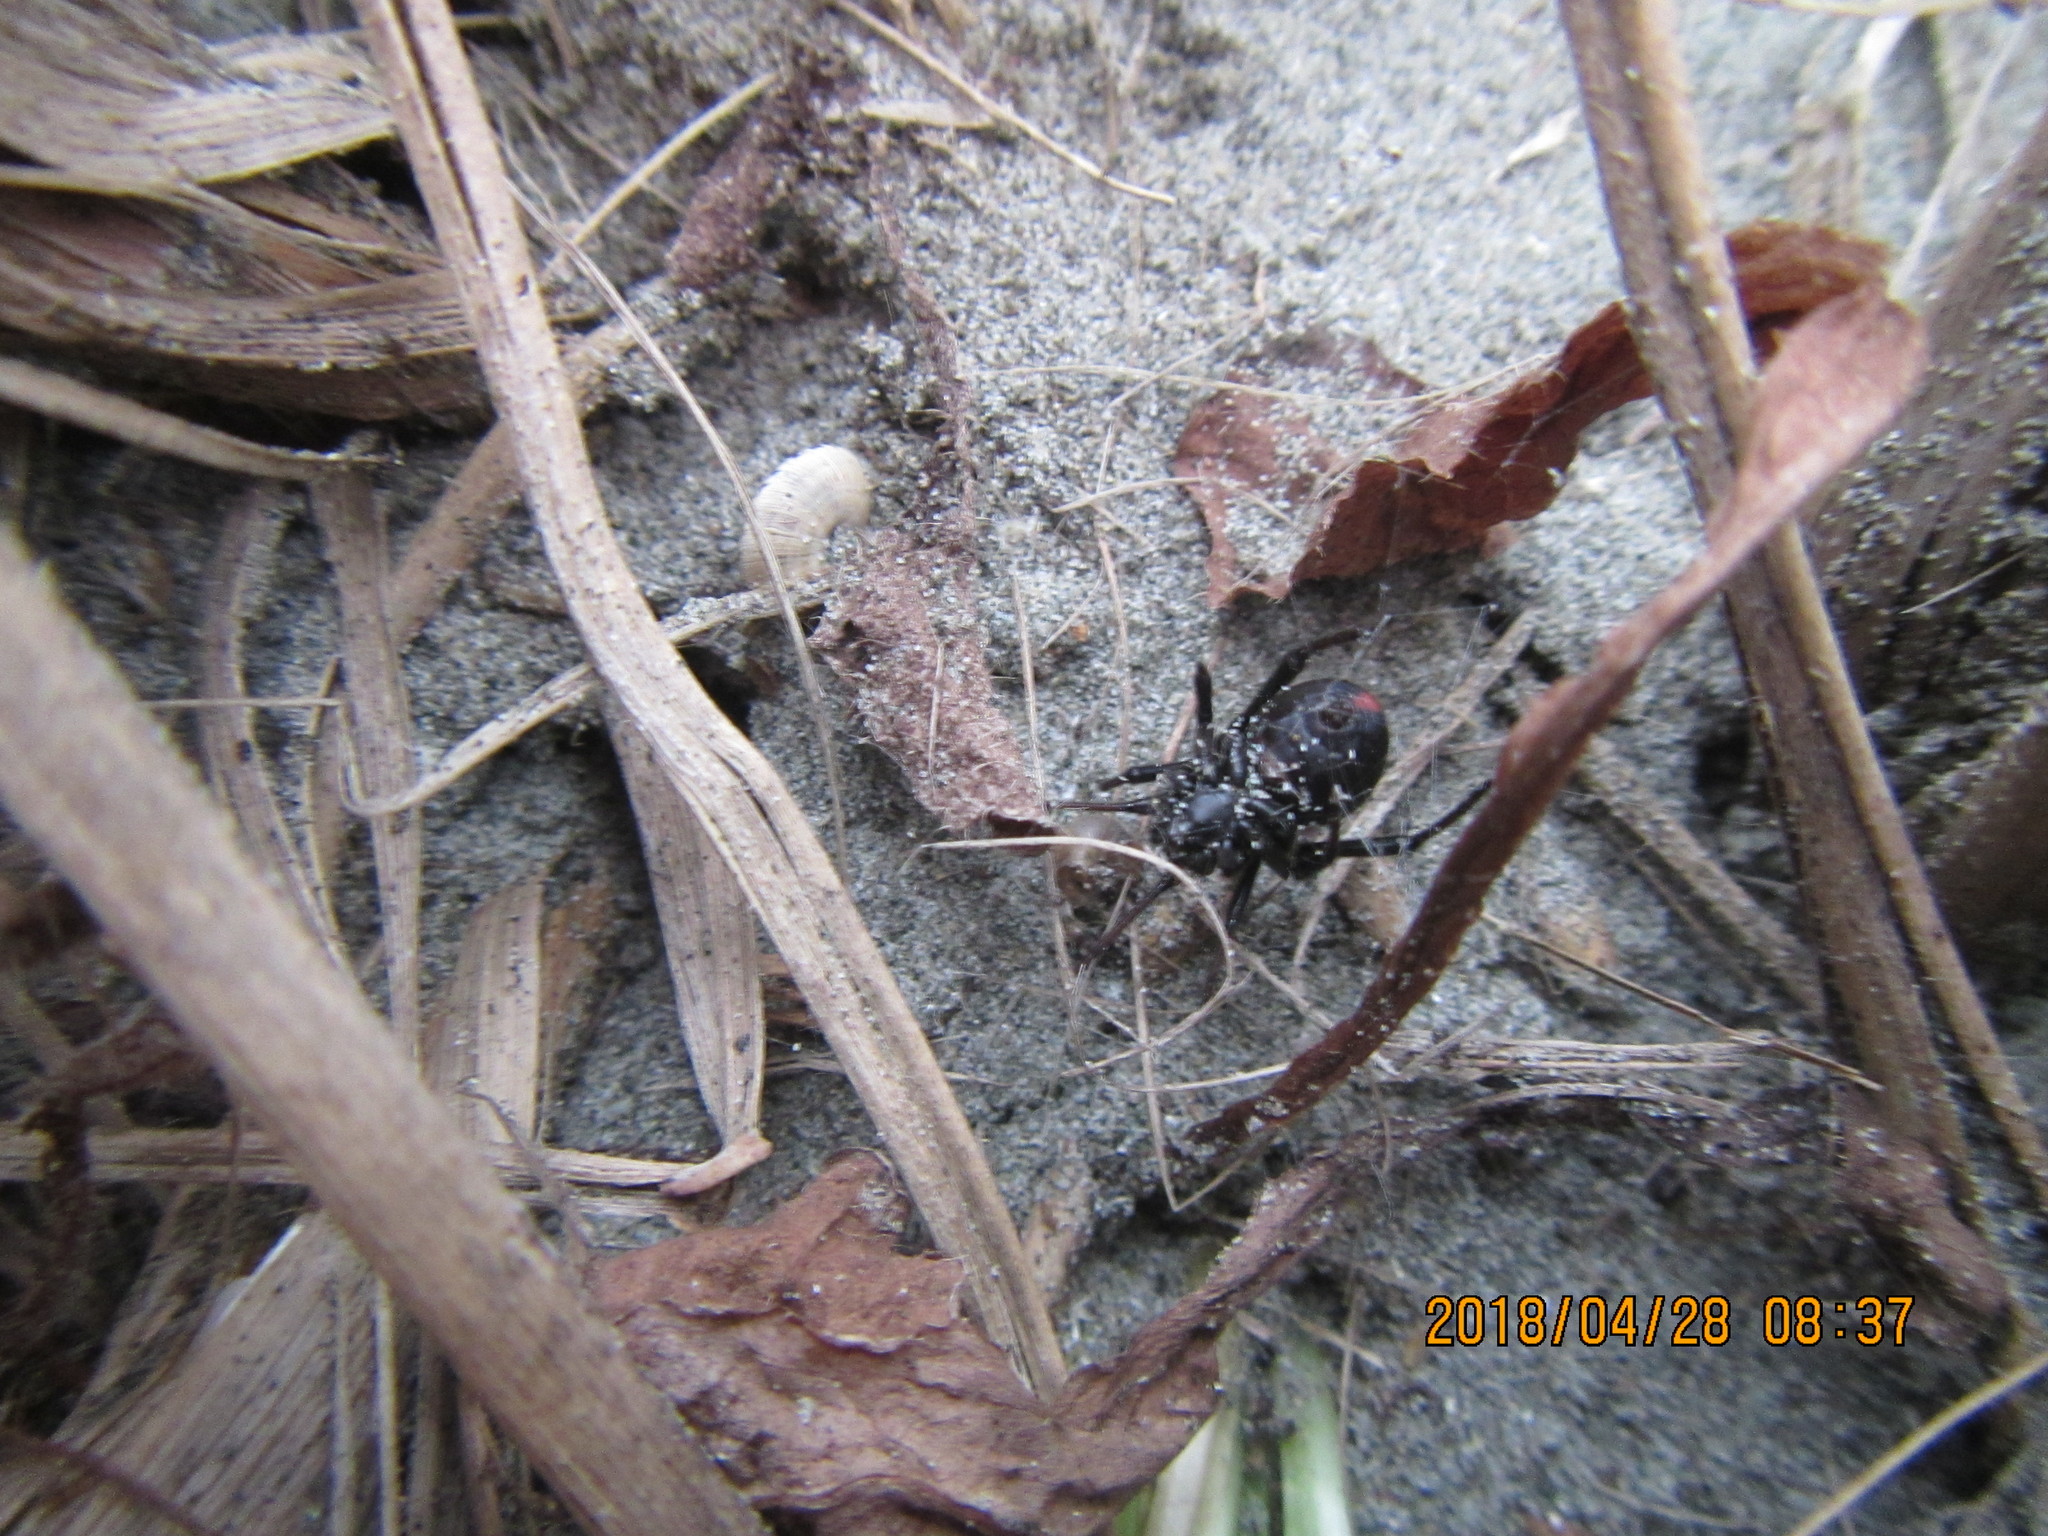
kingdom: Animalia
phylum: Arthropoda
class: Arachnida
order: Araneae
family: Theridiidae
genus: Latrodectus
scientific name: Latrodectus katipo
